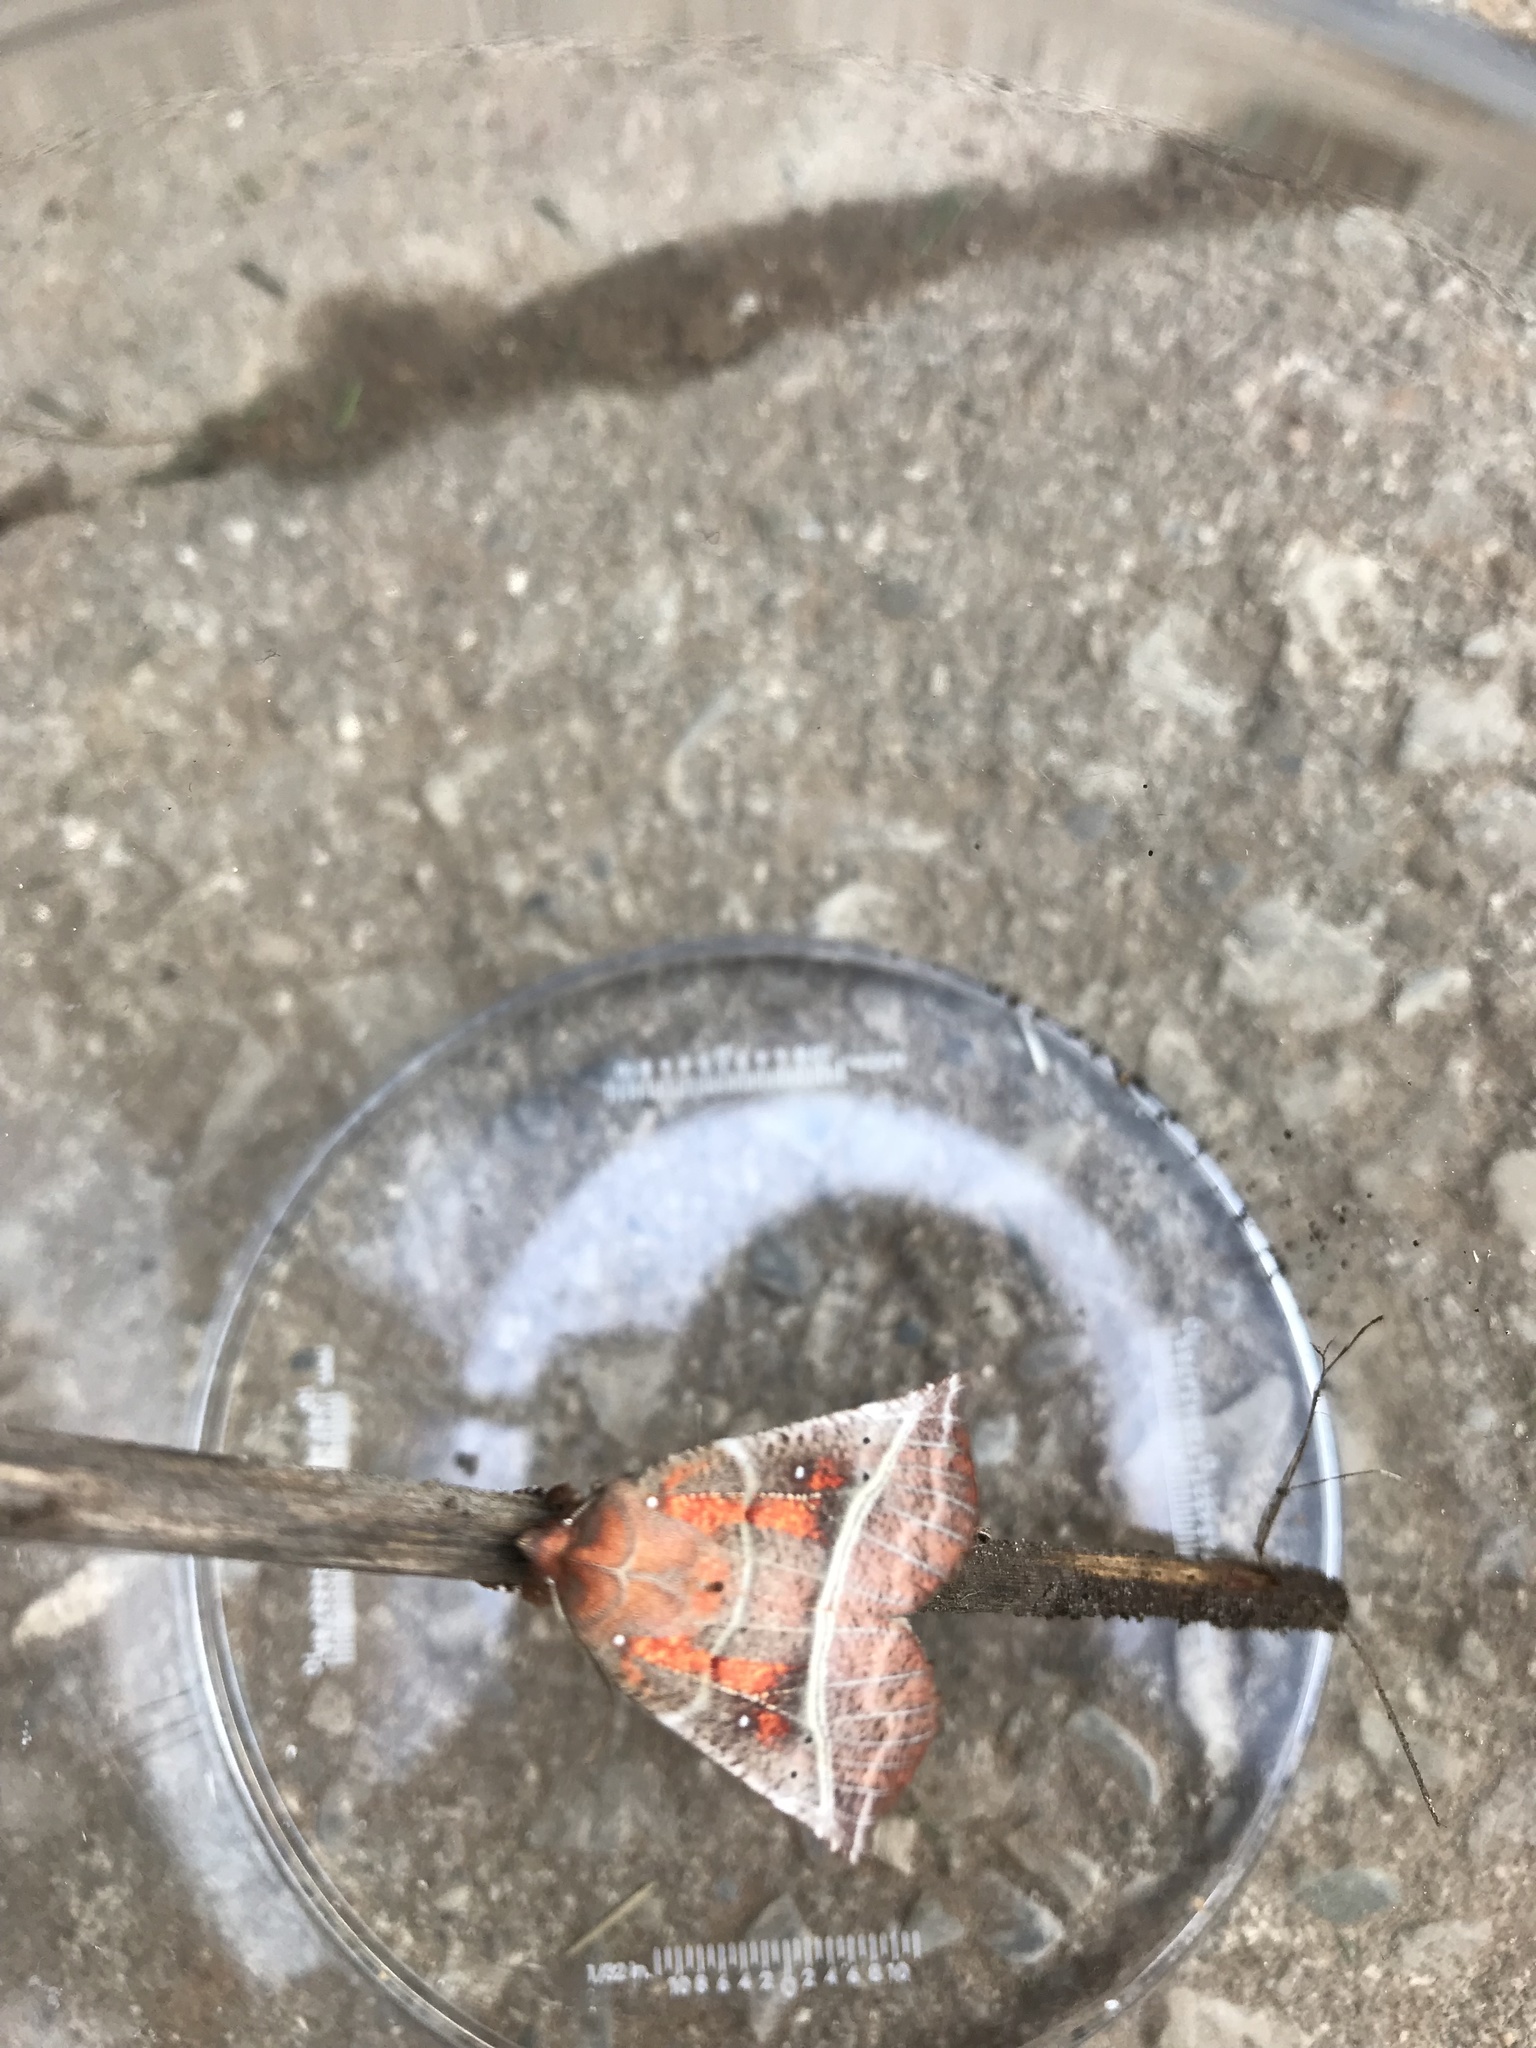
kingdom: Animalia
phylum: Arthropoda
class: Insecta
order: Lepidoptera
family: Erebidae
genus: Scoliopteryx
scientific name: Scoliopteryx libatrix
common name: Herald
